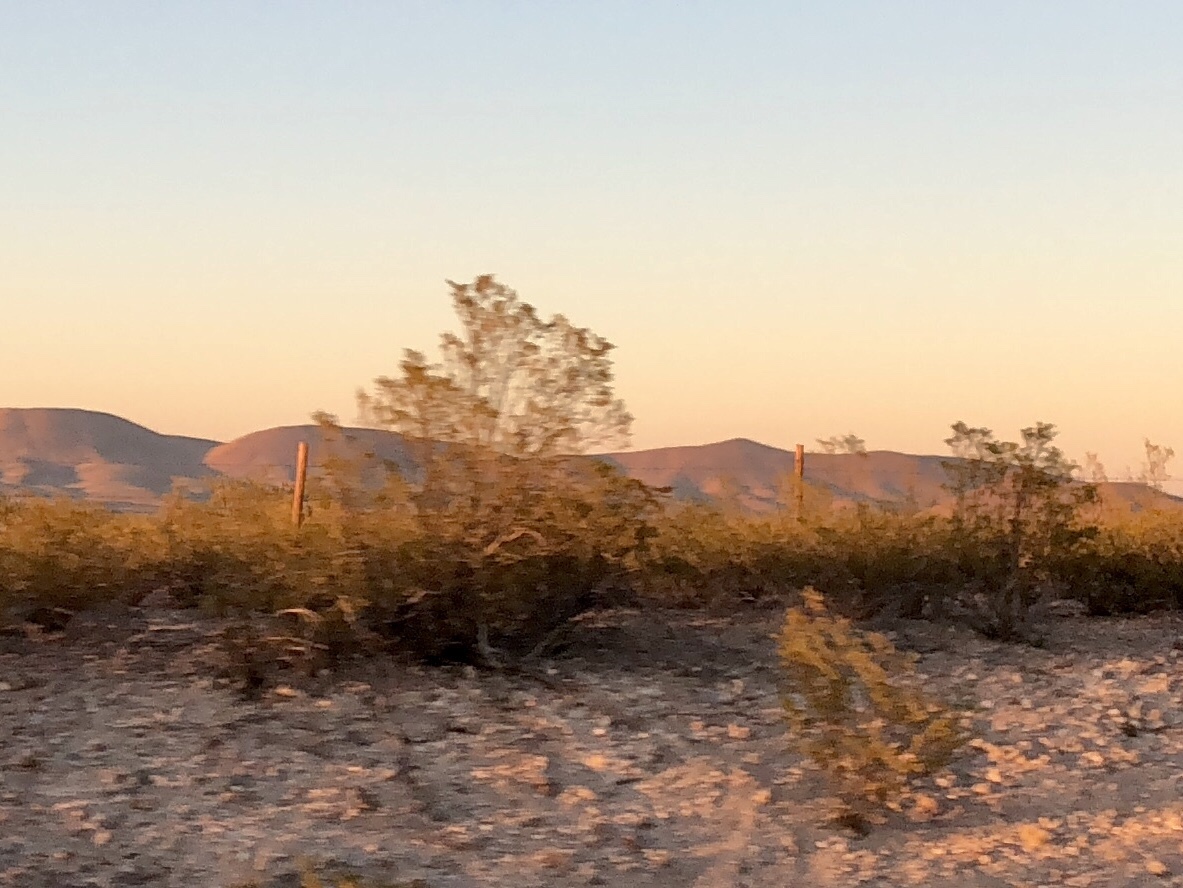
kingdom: Plantae
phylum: Tracheophyta
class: Magnoliopsida
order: Zygophyllales
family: Zygophyllaceae
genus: Larrea
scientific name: Larrea tridentata
